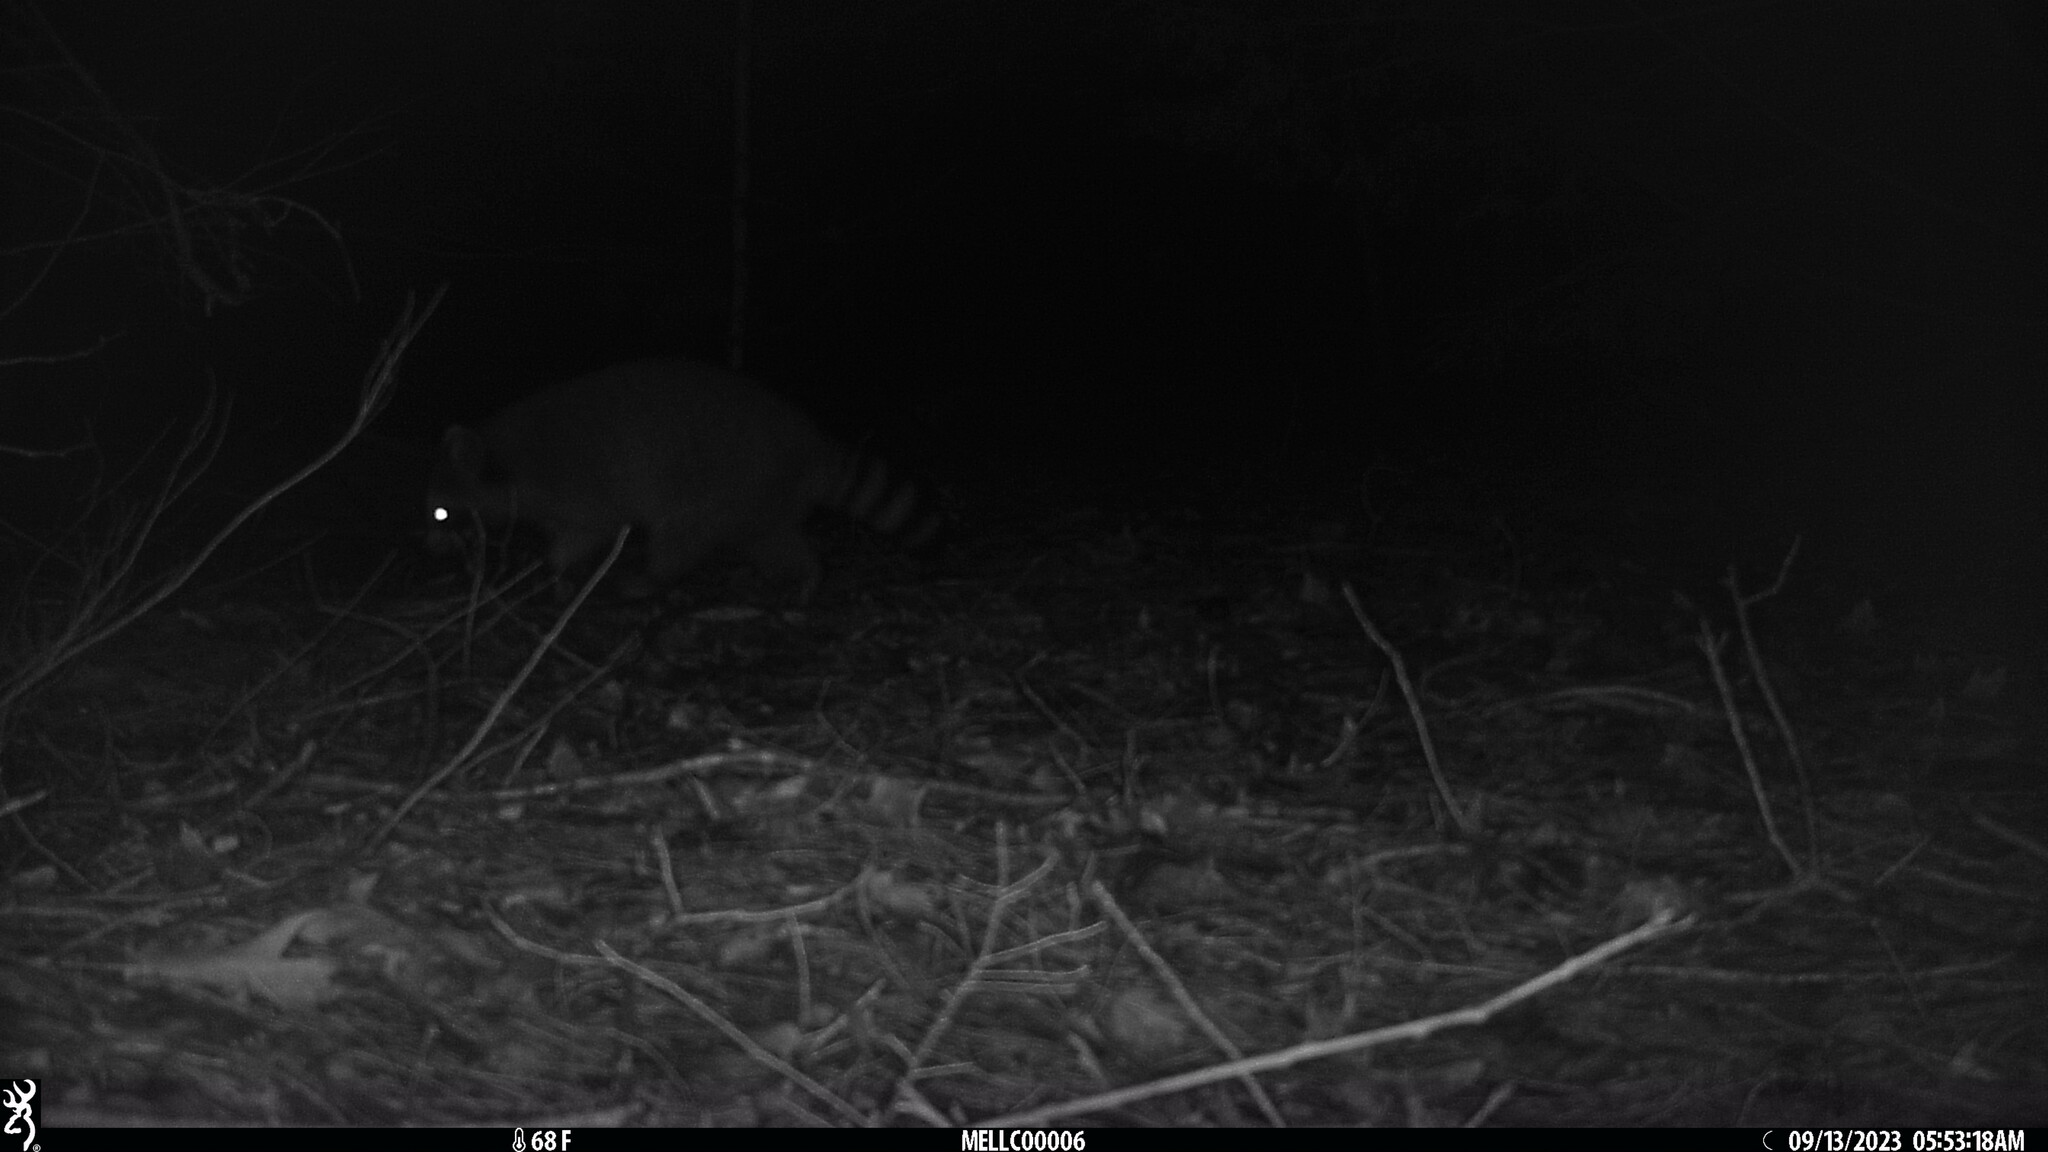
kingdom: Animalia
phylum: Chordata
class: Mammalia
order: Carnivora
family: Procyonidae
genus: Procyon
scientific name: Procyon lotor
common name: Raccoon
